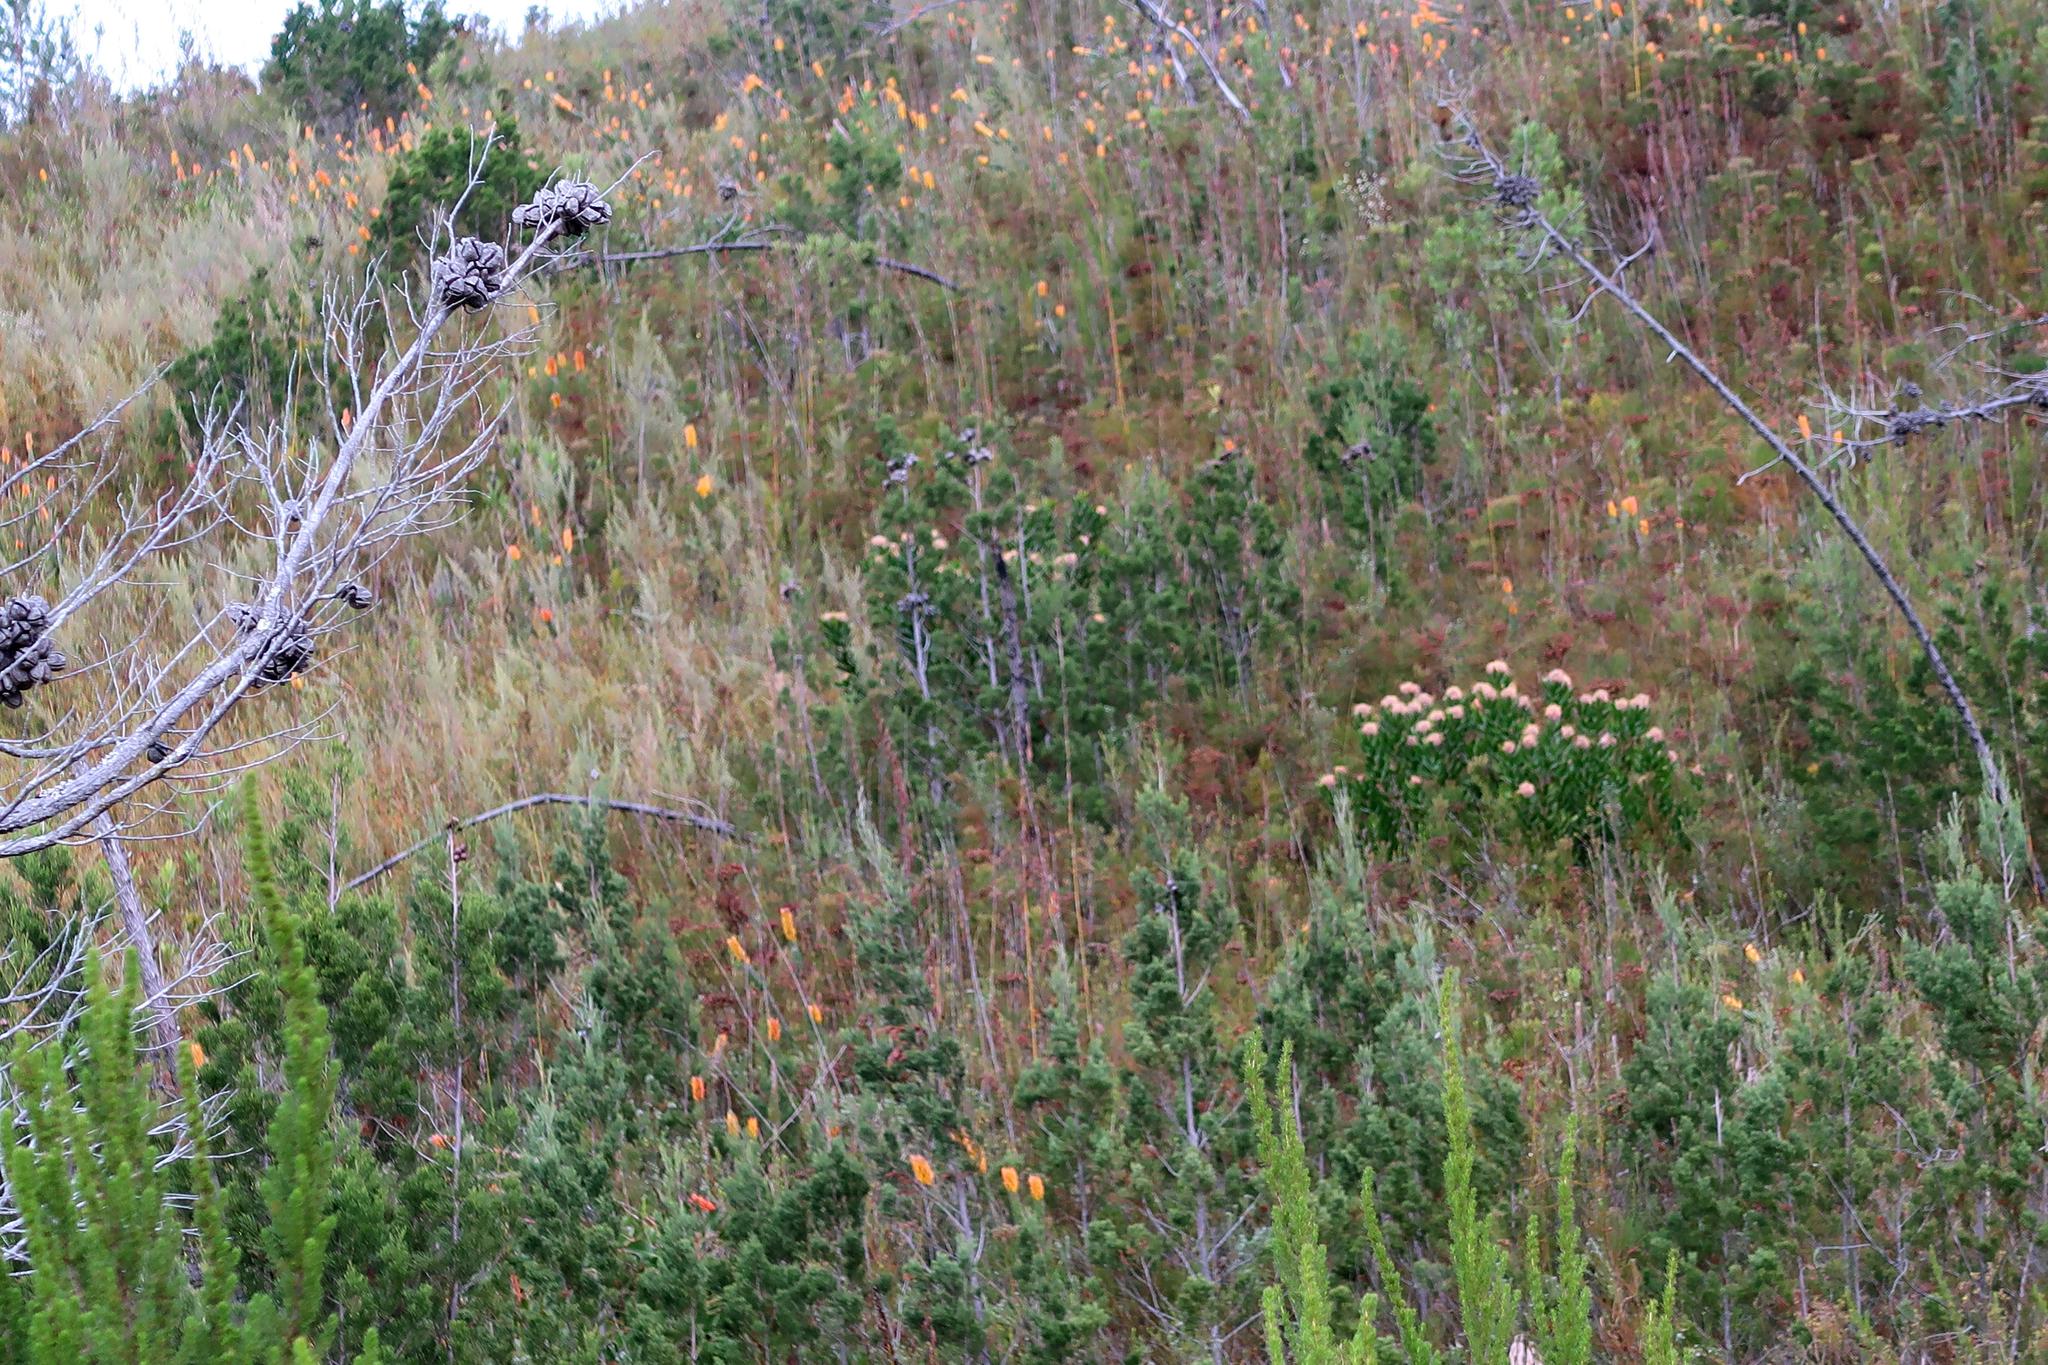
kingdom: Plantae
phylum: Tracheophyta
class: Magnoliopsida
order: Proteales
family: Proteaceae
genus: Leucospermum
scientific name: Leucospermum glabrum
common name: Outeniqua pincushion
